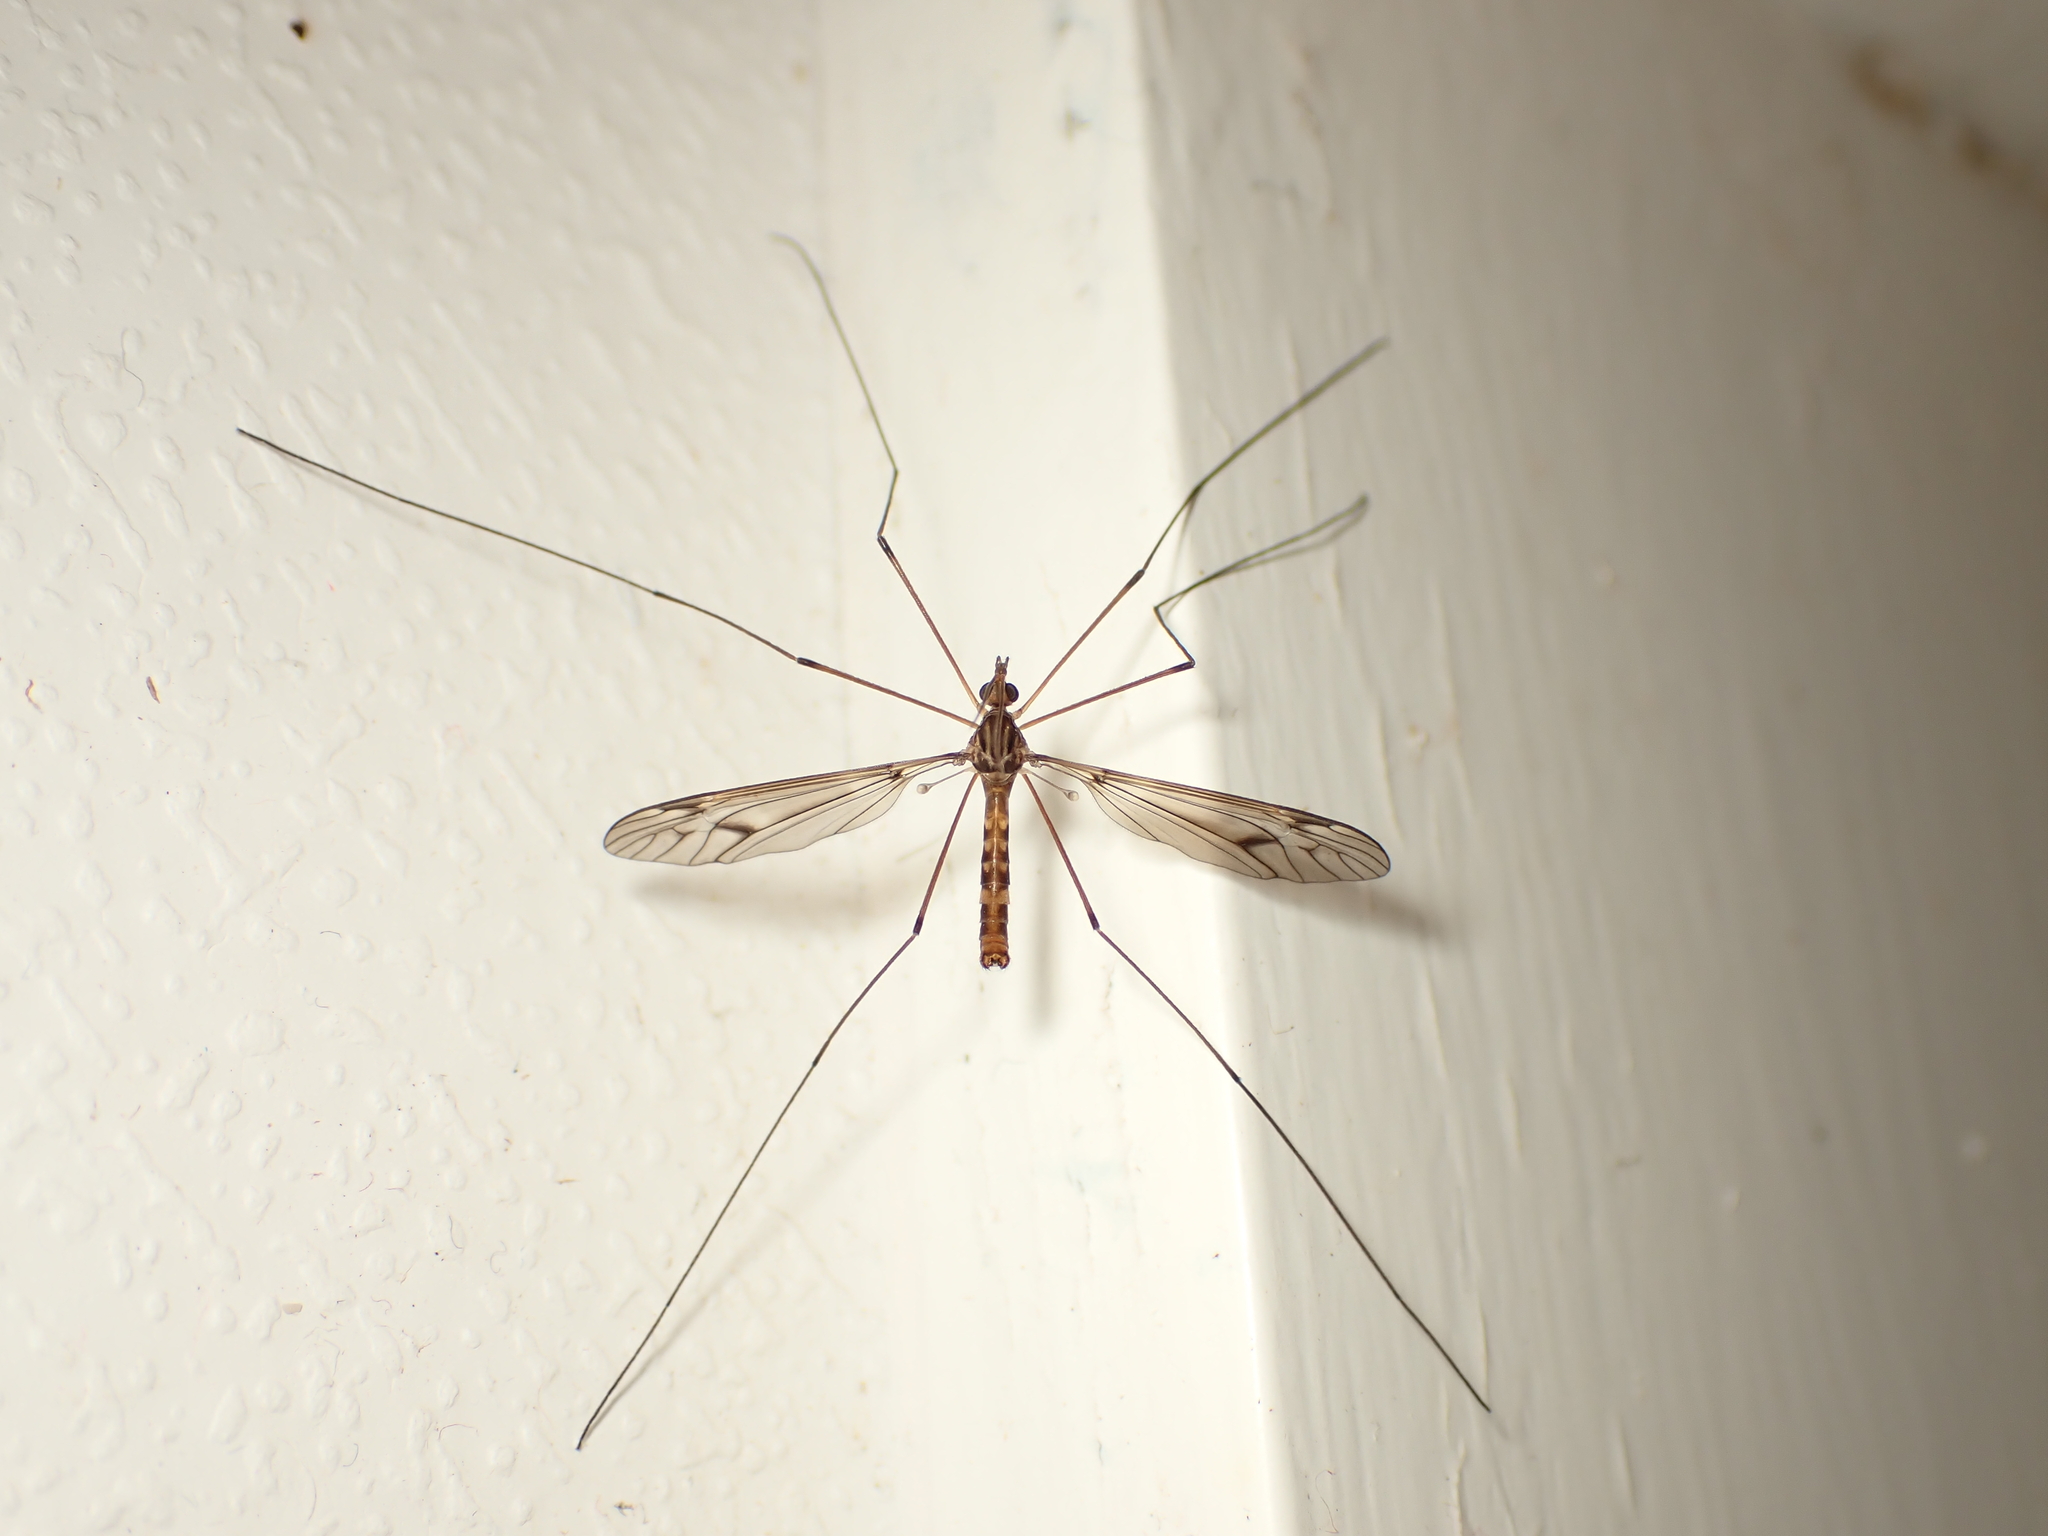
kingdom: Animalia
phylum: Arthropoda
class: Insecta
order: Diptera
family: Tipulidae
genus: Leptotarsus
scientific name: Leptotarsus cubitalis
